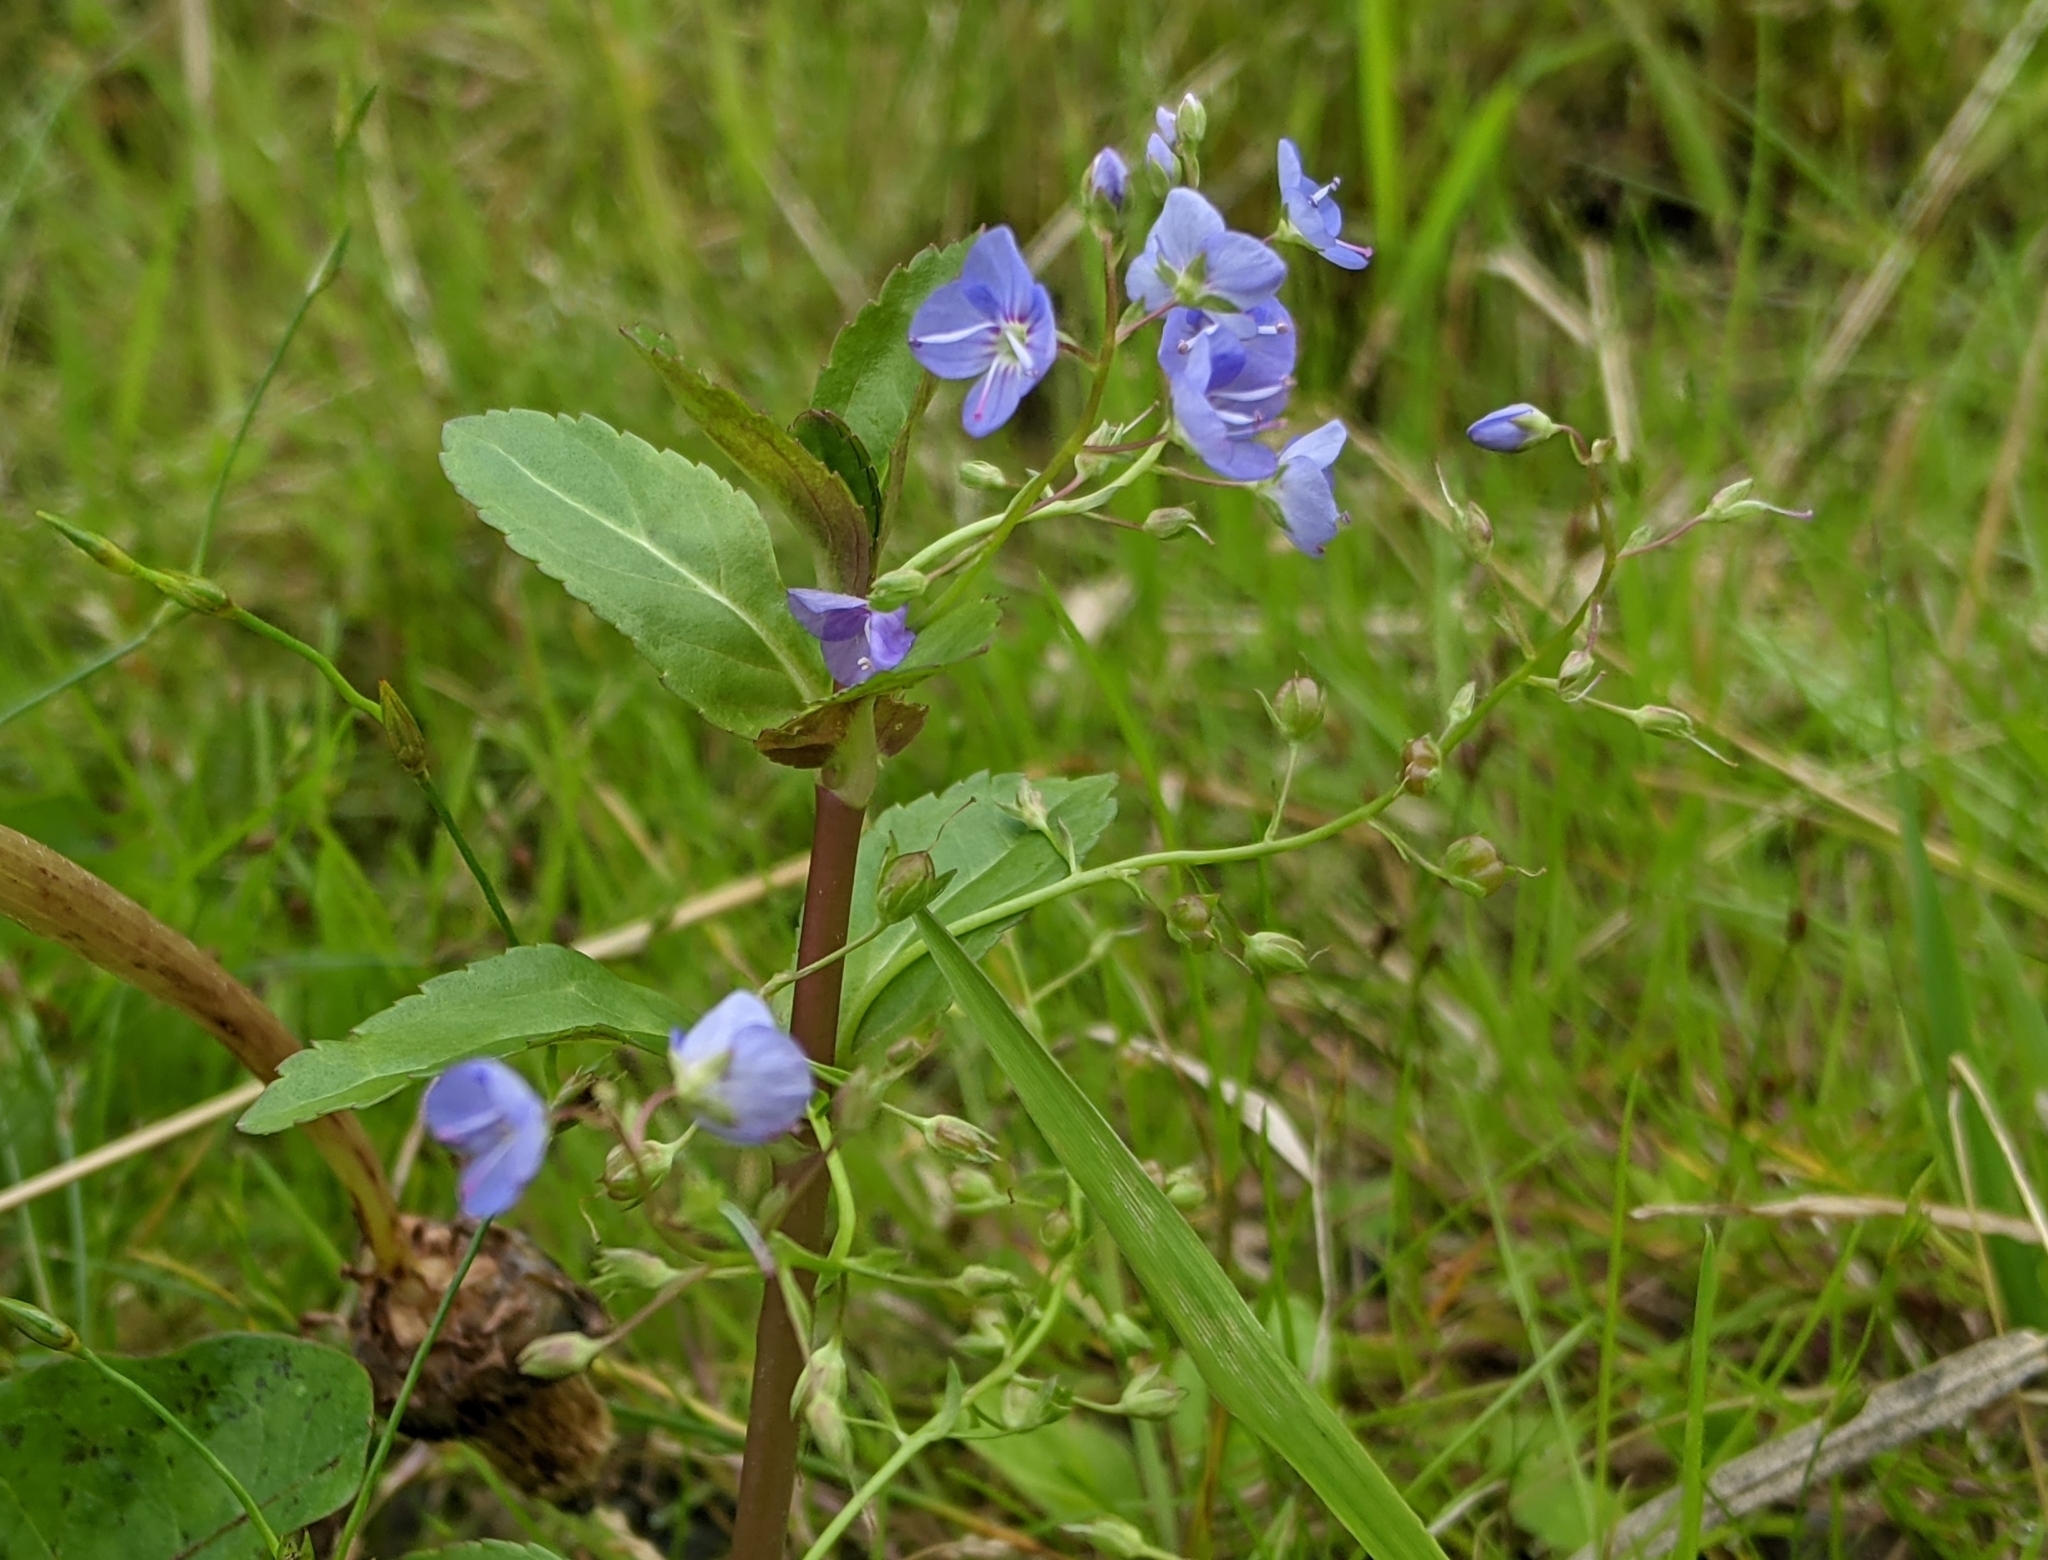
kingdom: Plantae
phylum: Tracheophyta
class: Magnoliopsida
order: Lamiales
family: Plantaginaceae
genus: Veronica
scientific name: Veronica americana
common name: American brooklime
